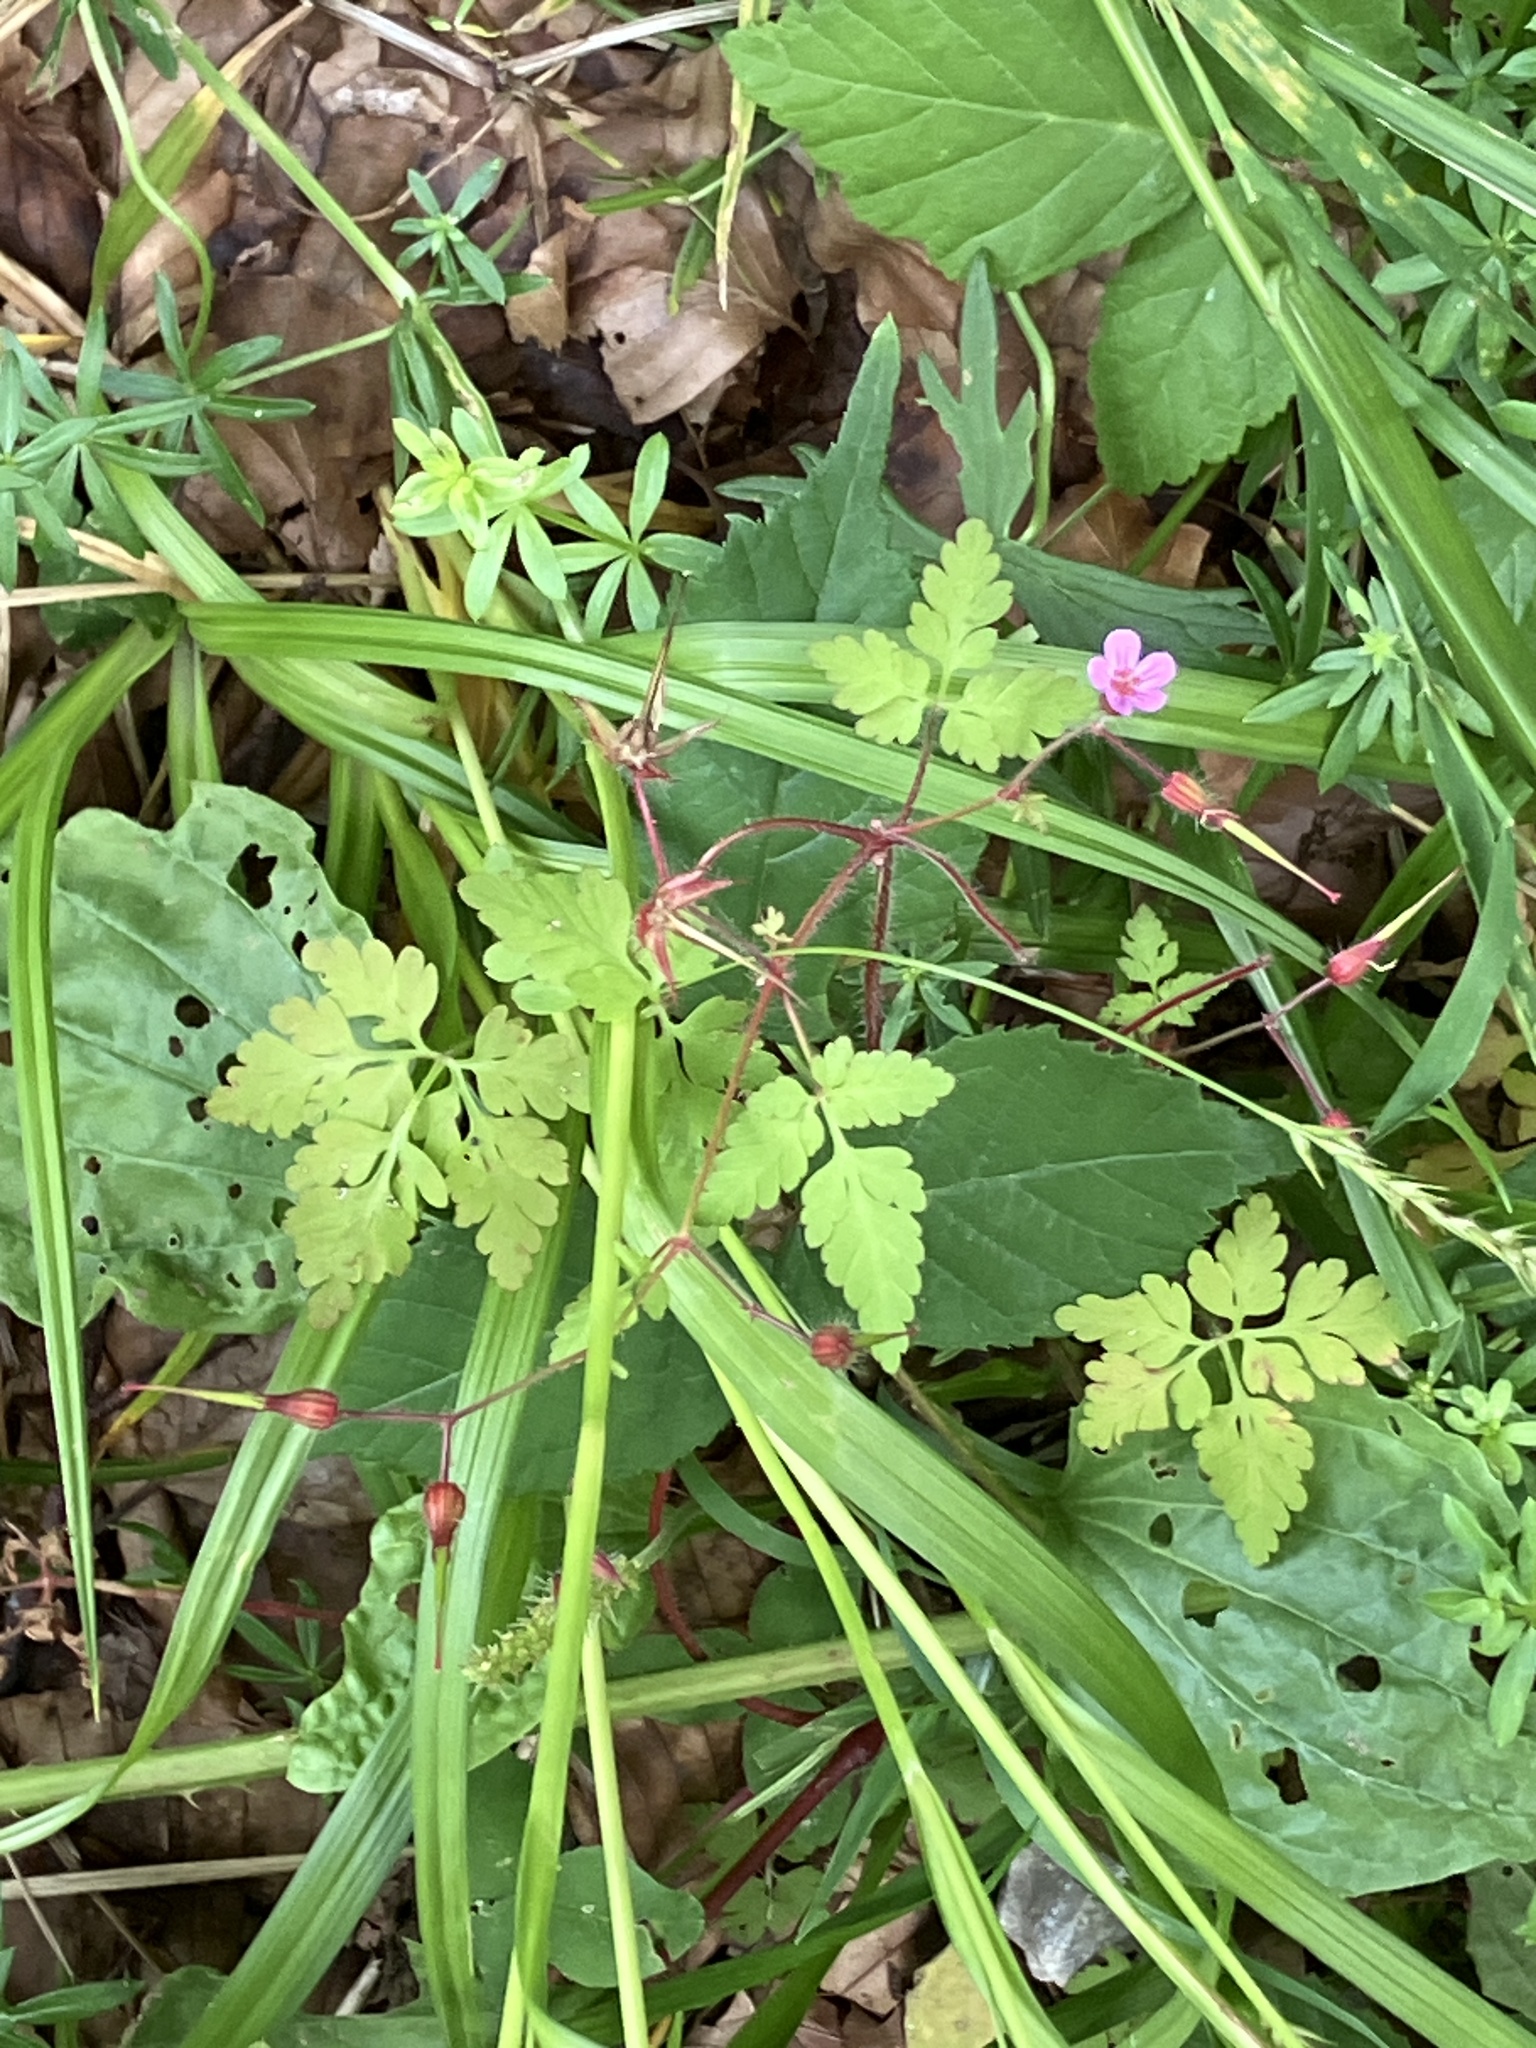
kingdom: Plantae
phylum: Tracheophyta
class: Magnoliopsida
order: Geraniales
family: Geraniaceae
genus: Geranium
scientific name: Geranium robertianum
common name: Herb-robert
